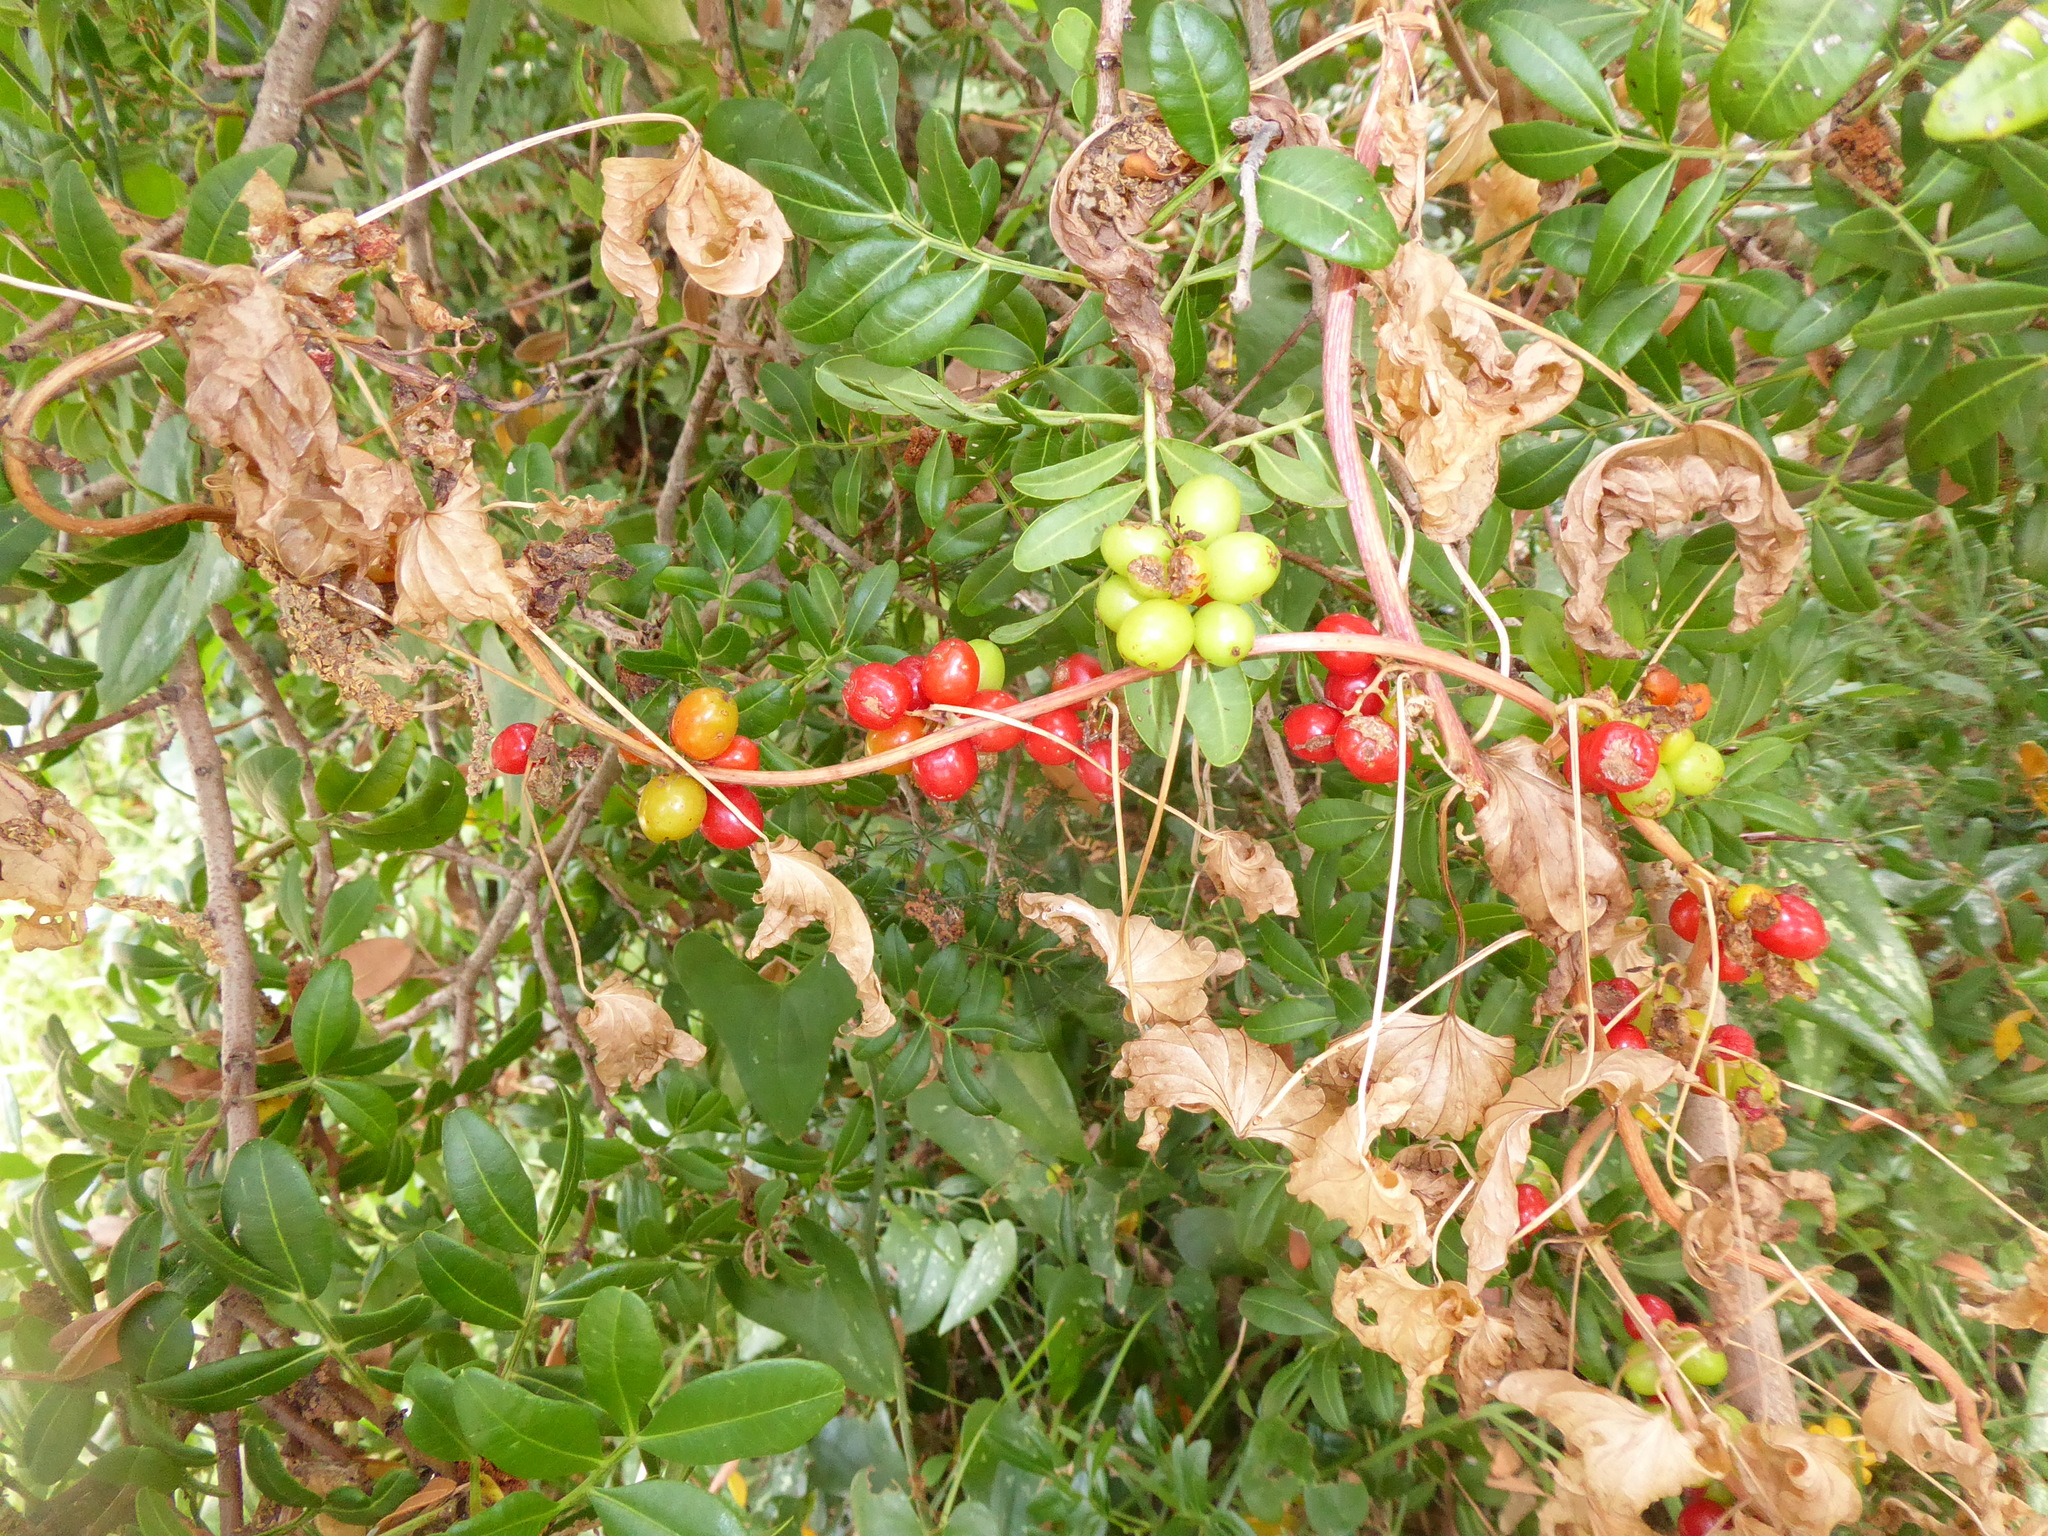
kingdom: Plantae
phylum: Tracheophyta
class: Liliopsida
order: Liliales
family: Smilacaceae
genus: Smilax
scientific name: Smilax aspera
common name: Common smilax
